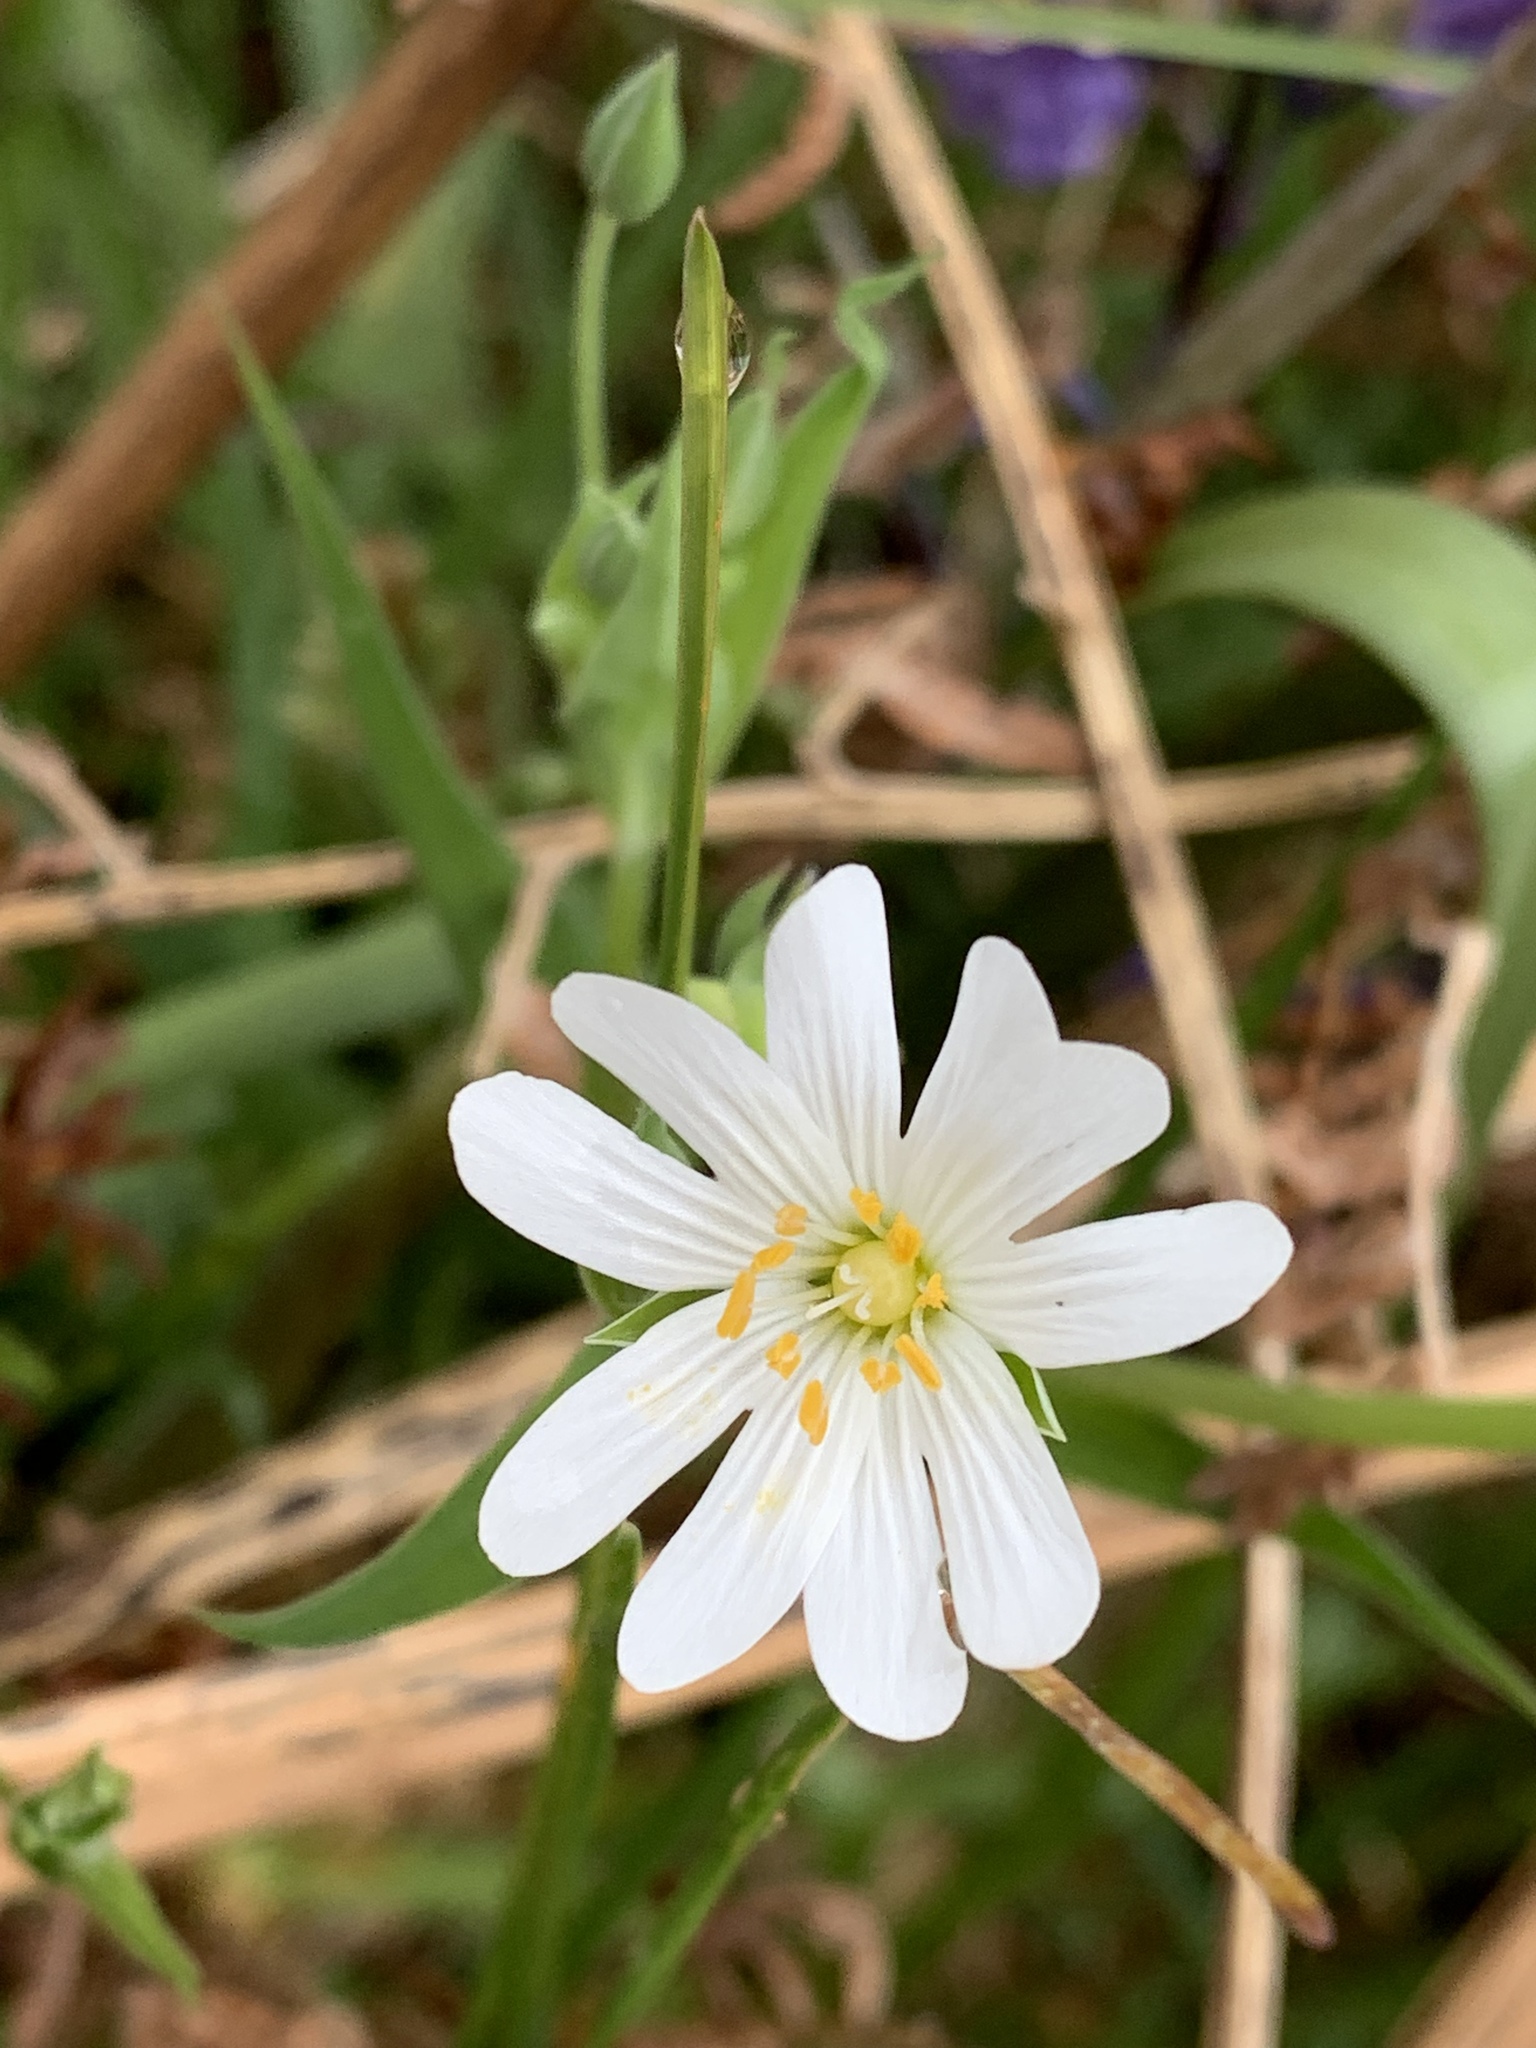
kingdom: Plantae
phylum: Tracheophyta
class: Magnoliopsida
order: Caryophyllales
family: Caryophyllaceae
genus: Rabelera
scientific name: Rabelera holostea
